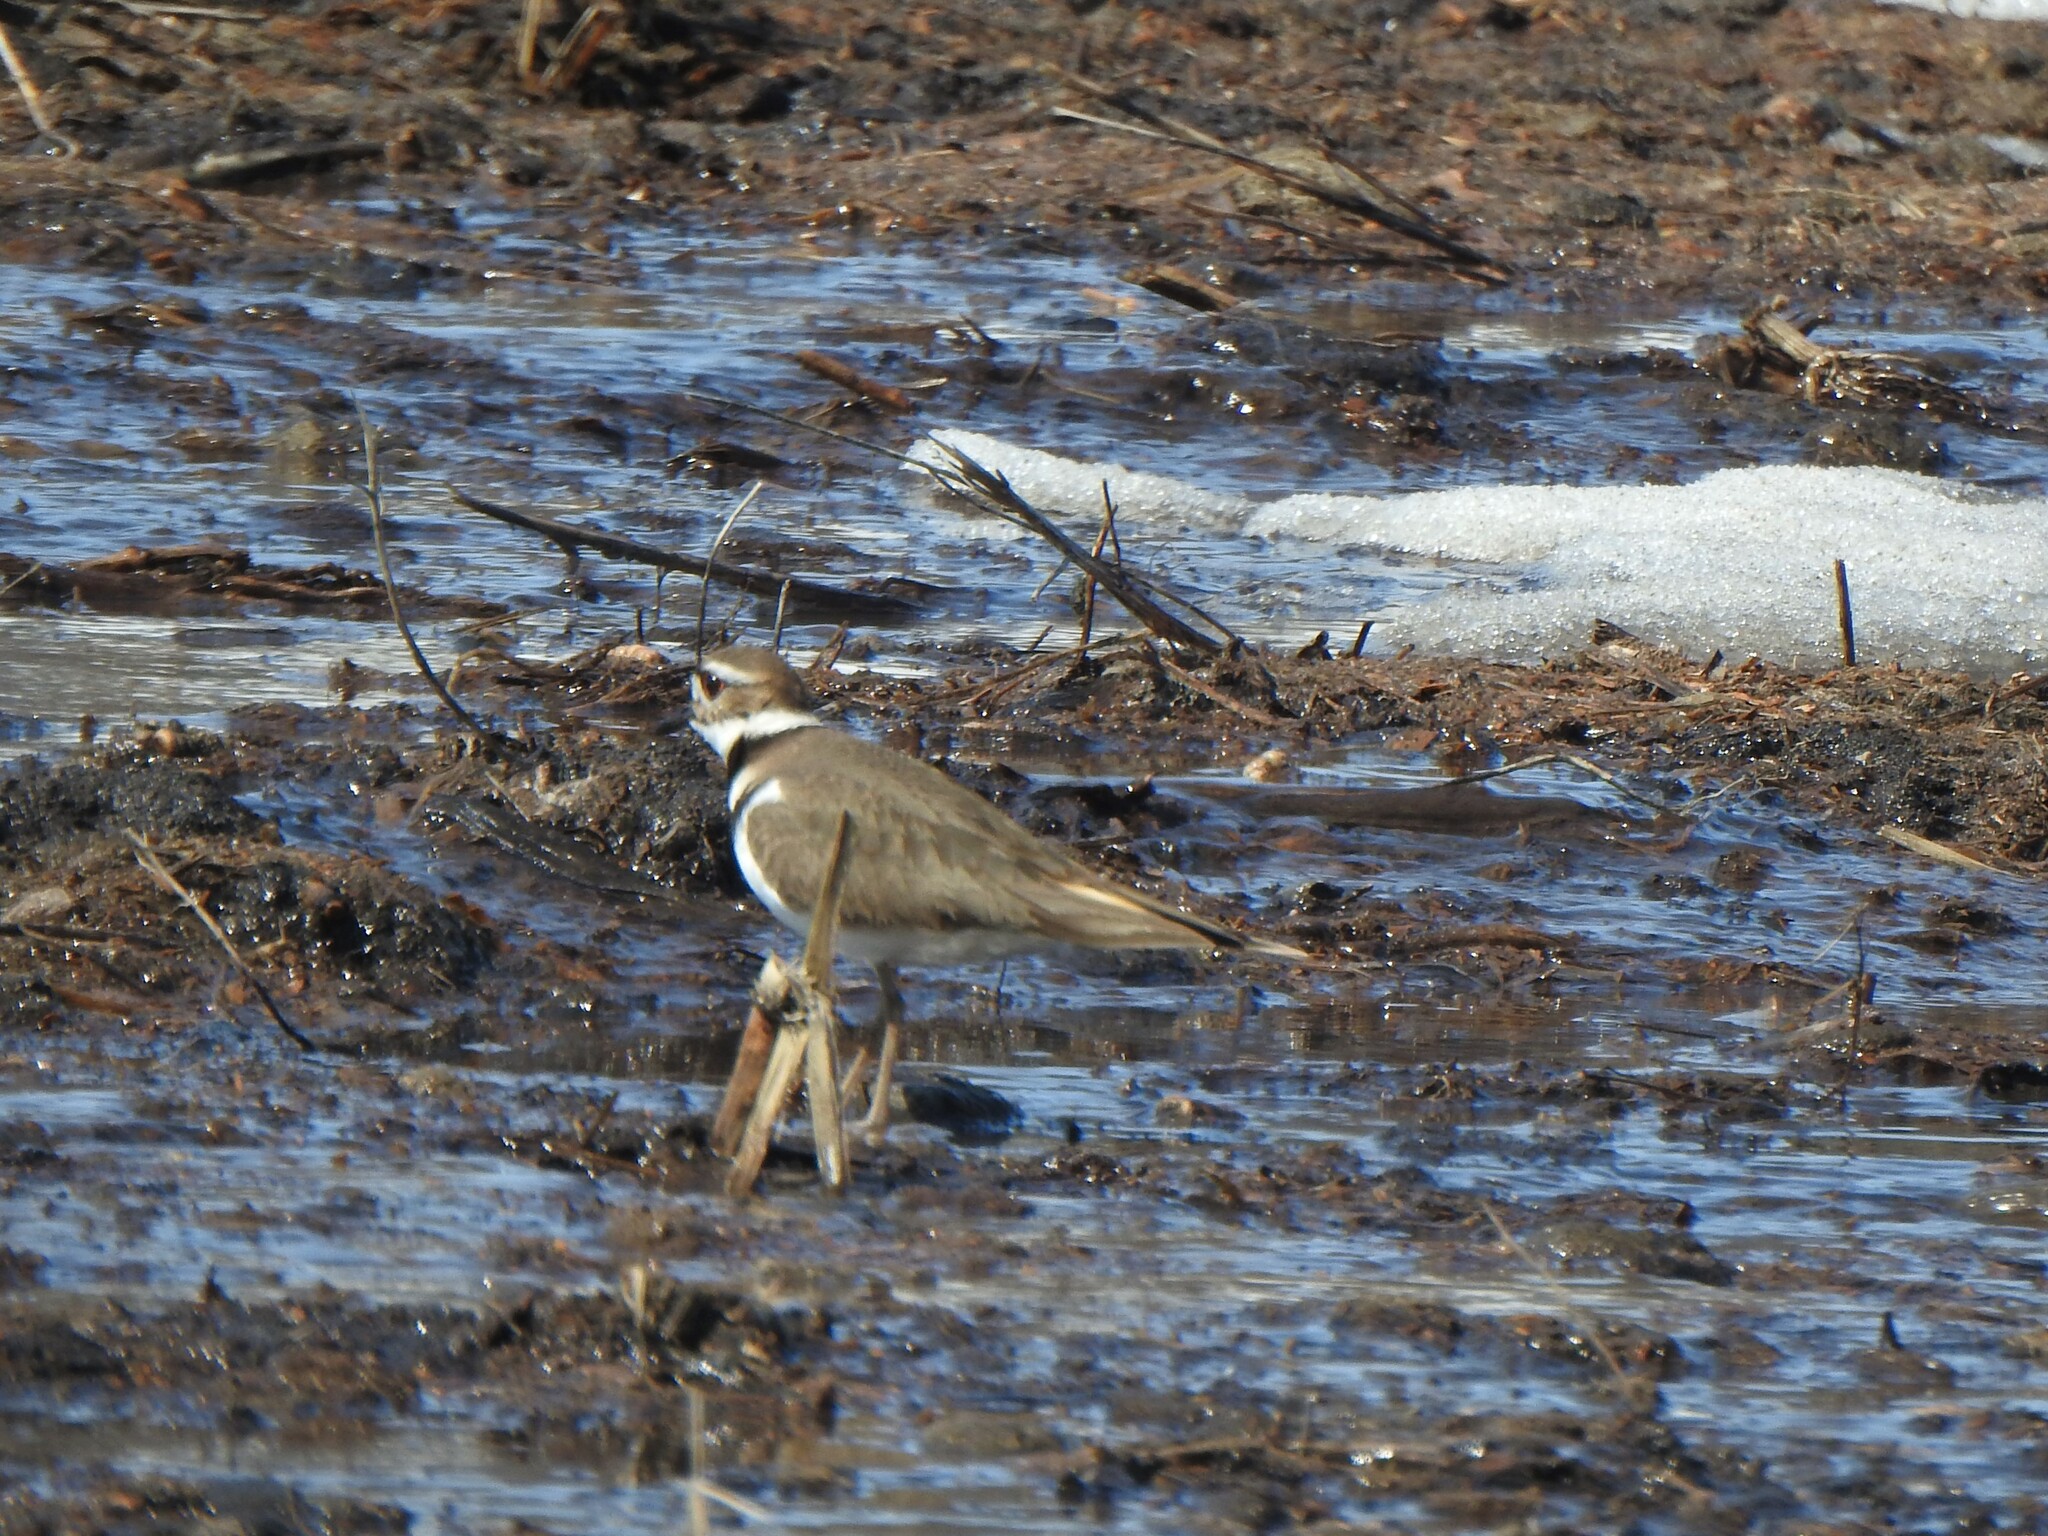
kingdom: Animalia
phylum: Chordata
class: Aves
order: Charadriiformes
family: Charadriidae
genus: Charadrius
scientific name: Charadrius vociferus
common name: Killdeer
